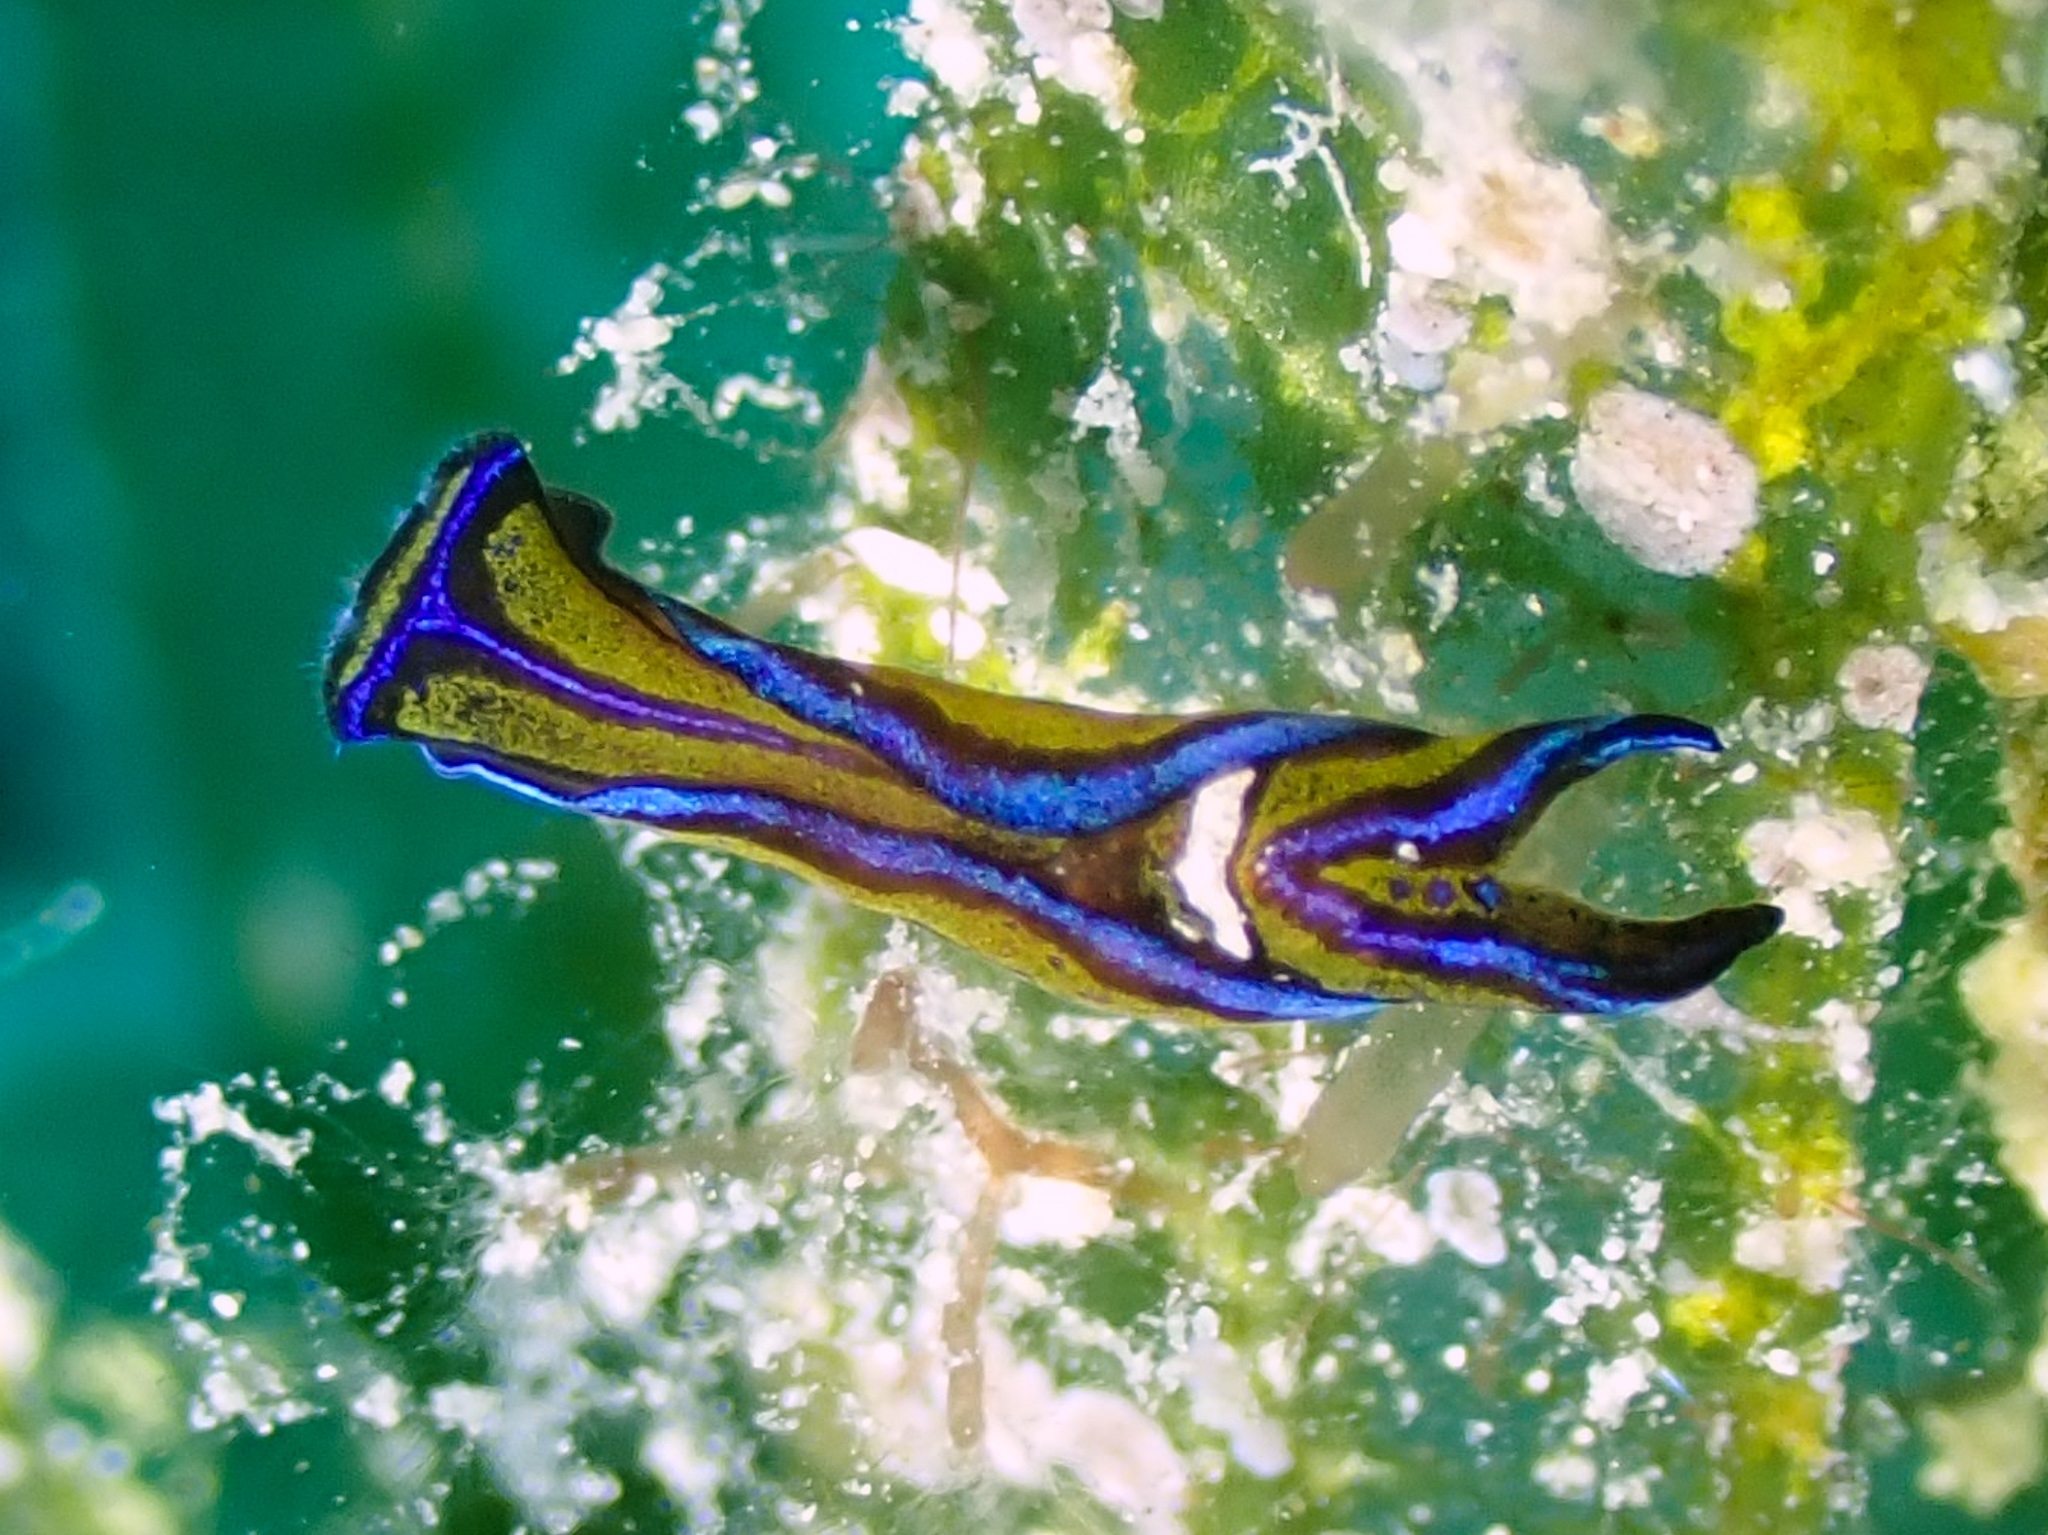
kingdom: Animalia
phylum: Mollusca
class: Gastropoda
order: Cephalaspidea
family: Aglajidae
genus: Chelidonura
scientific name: Chelidonura hirundinina
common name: Leech headshield slug
